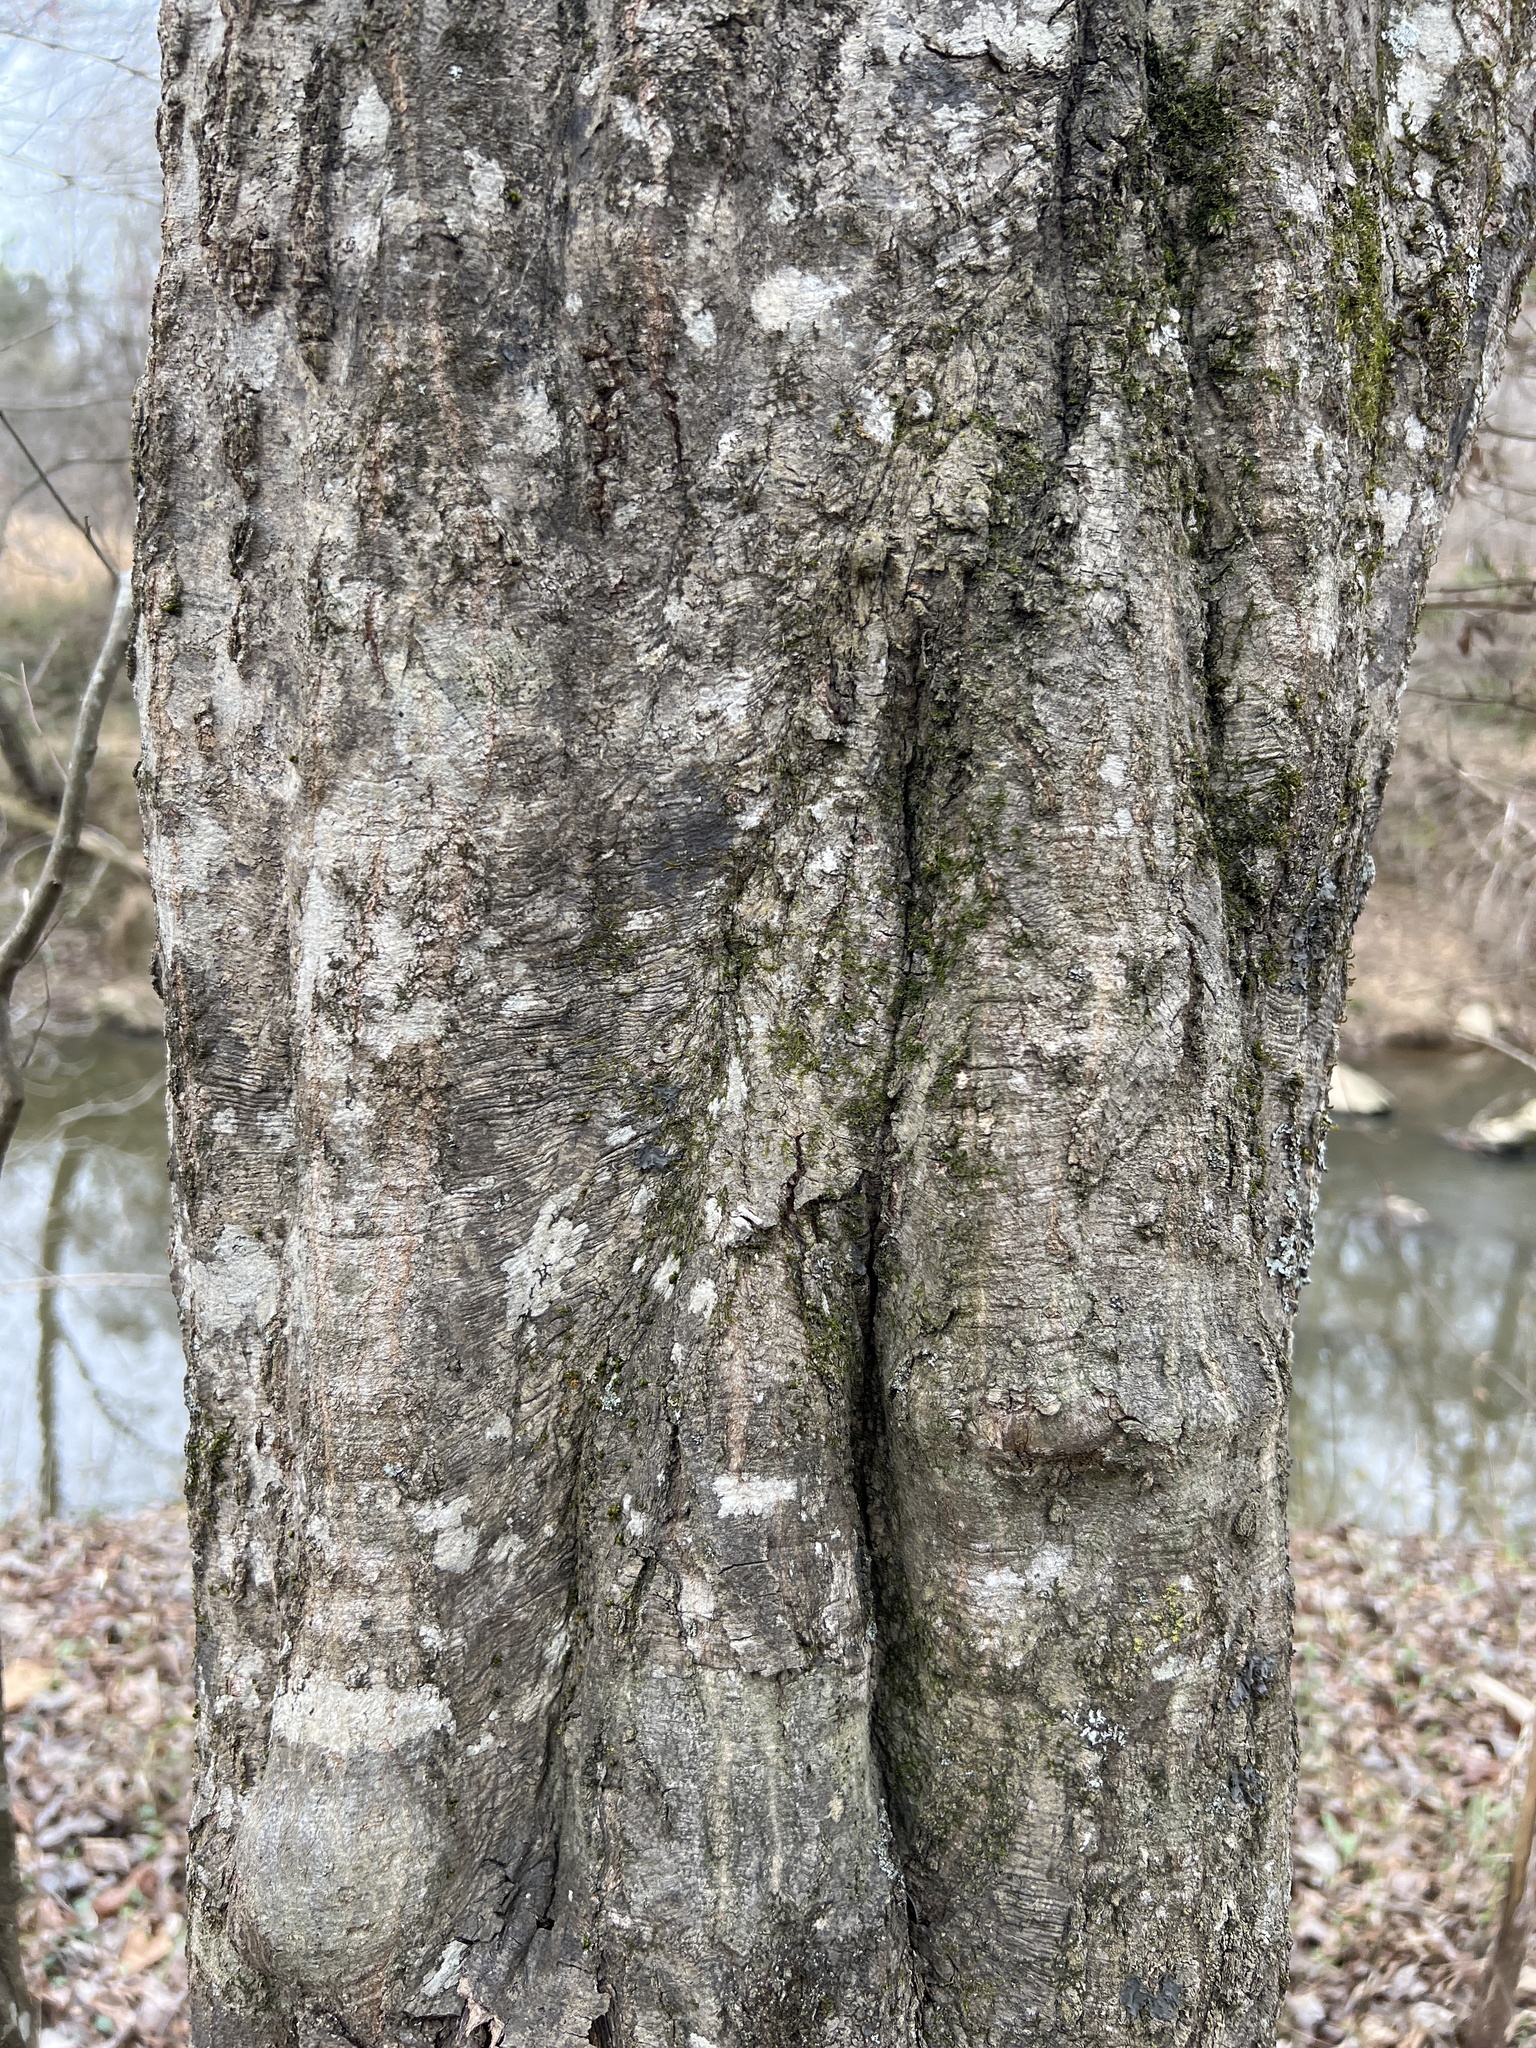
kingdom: Plantae
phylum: Tracheophyta
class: Magnoliopsida
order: Fagales
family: Betulaceae
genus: Carpinus
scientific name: Carpinus caroliniana
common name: American hornbeam
